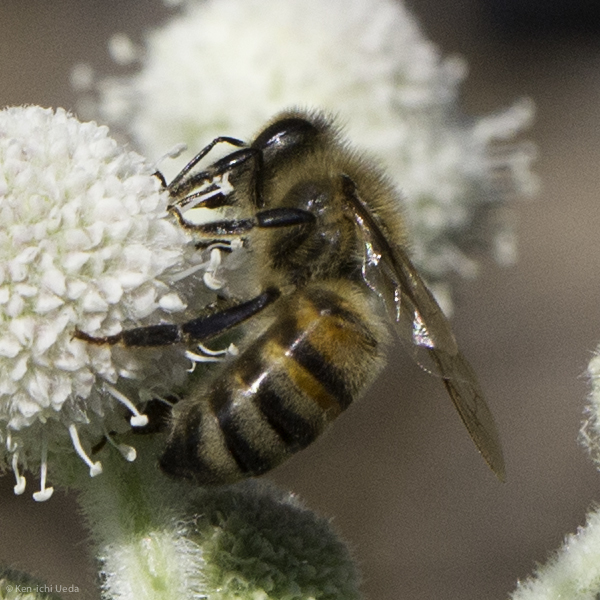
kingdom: Animalia
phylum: Arthropoda
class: Insecta
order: Hymenoptera
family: Apidae
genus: Apis
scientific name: Apis mellifera
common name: Honey bee
